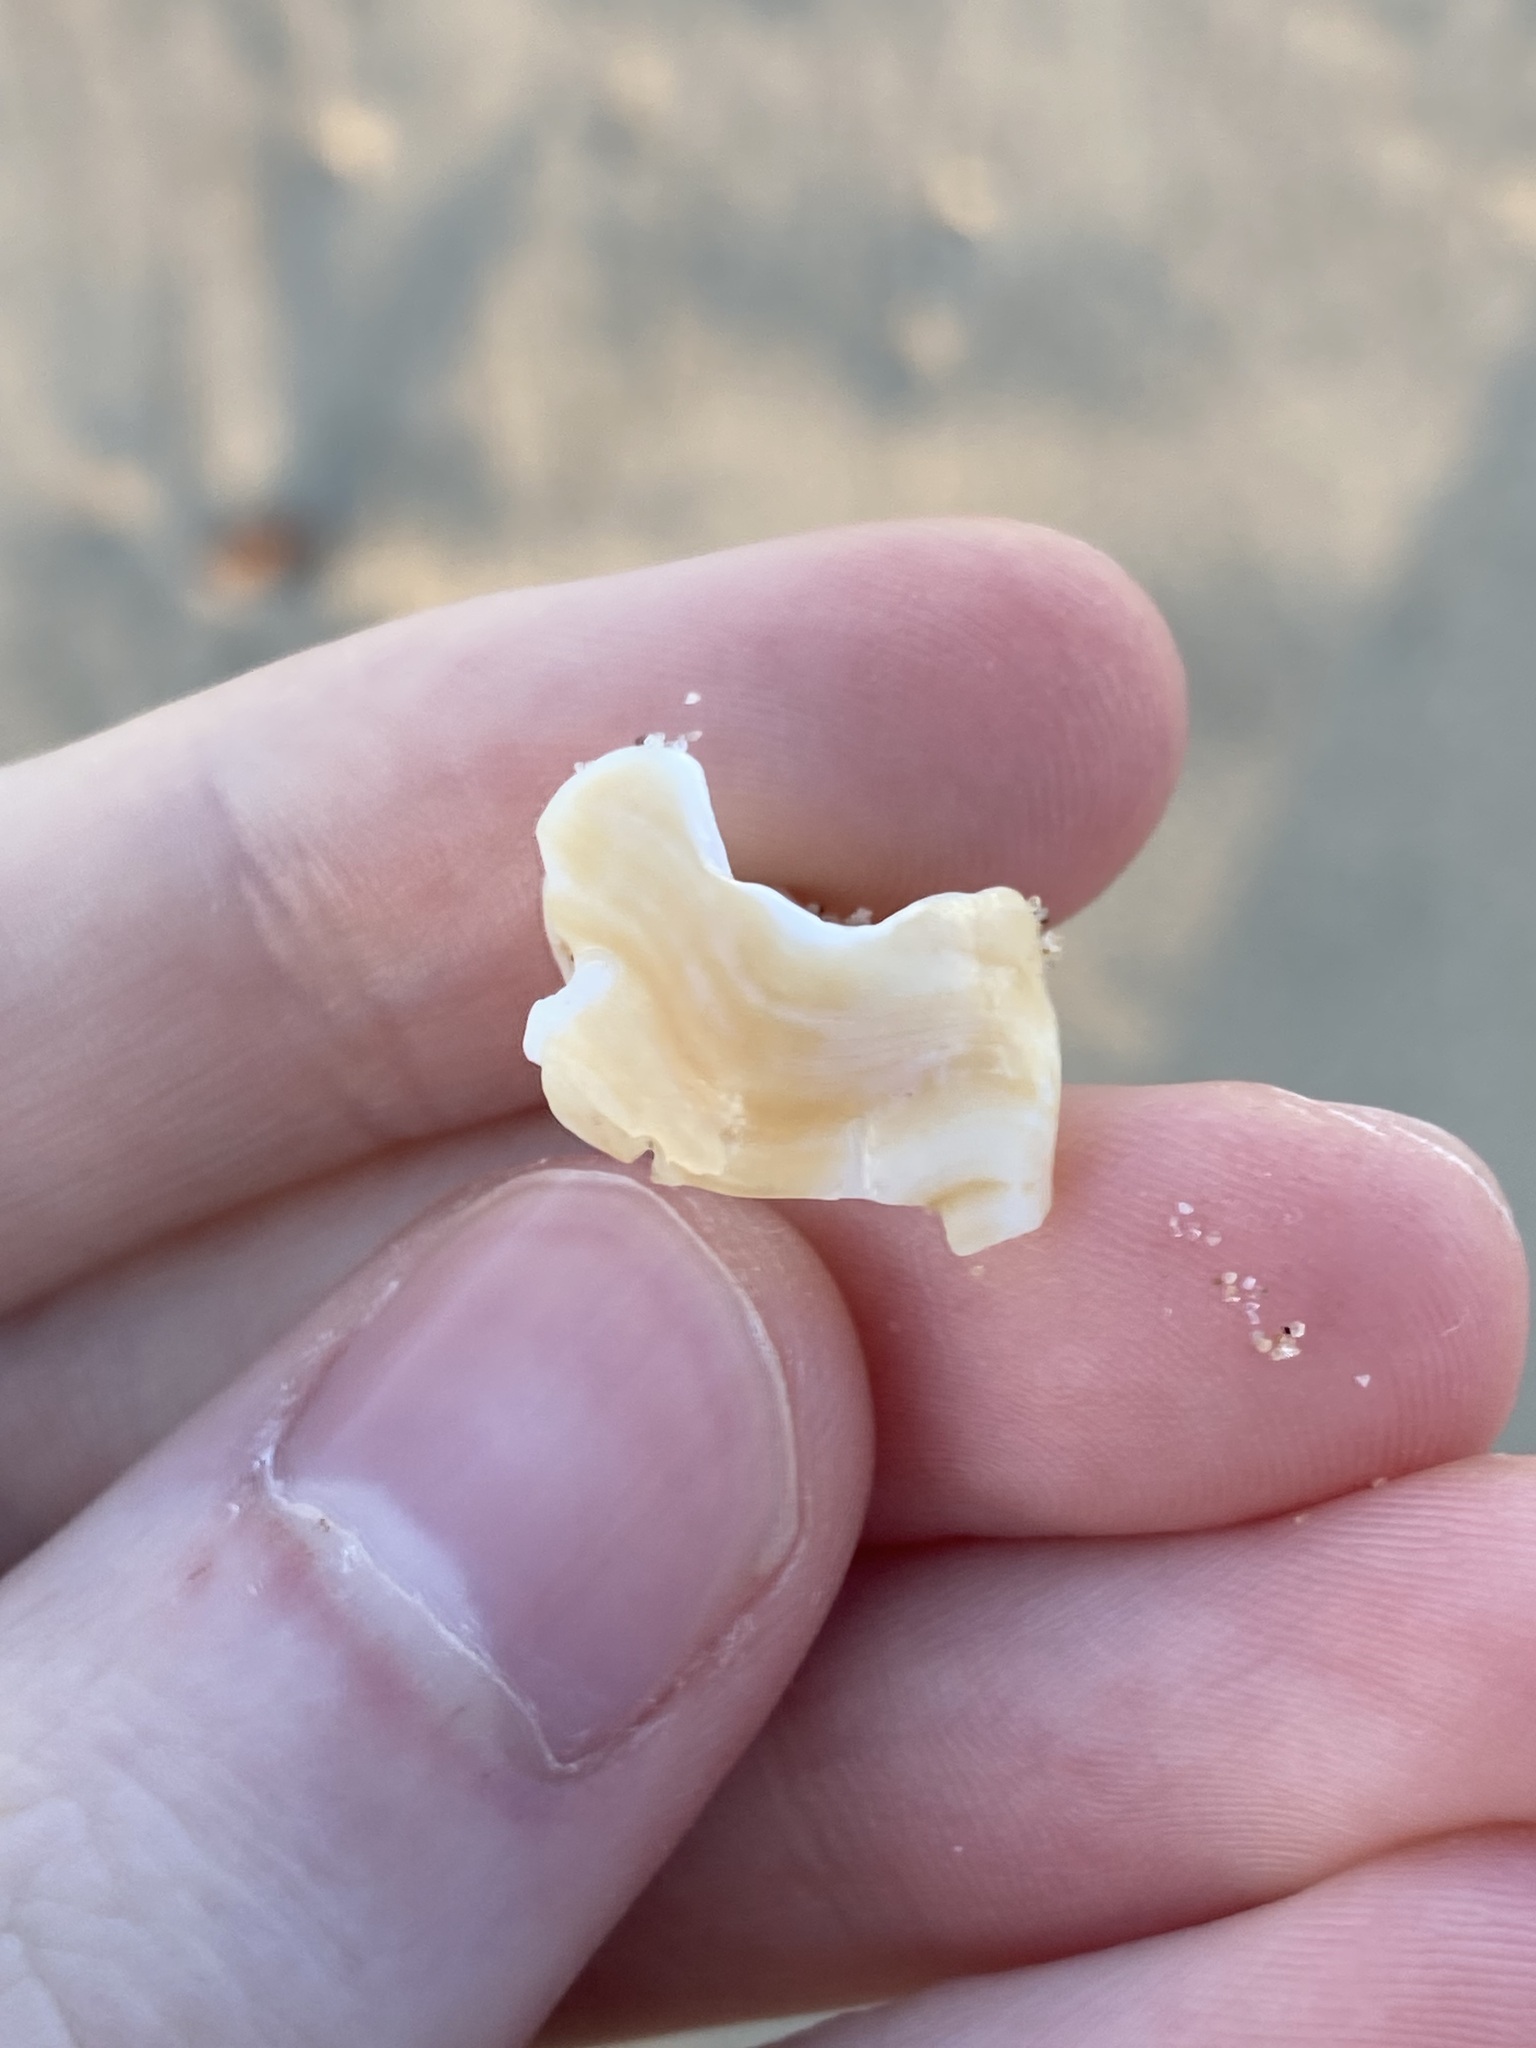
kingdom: Animalia
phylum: Mollusca
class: Gastropoda
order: Littorinimorpha
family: Struthiolariidae
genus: Tylospira
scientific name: Tylospira scutulata
